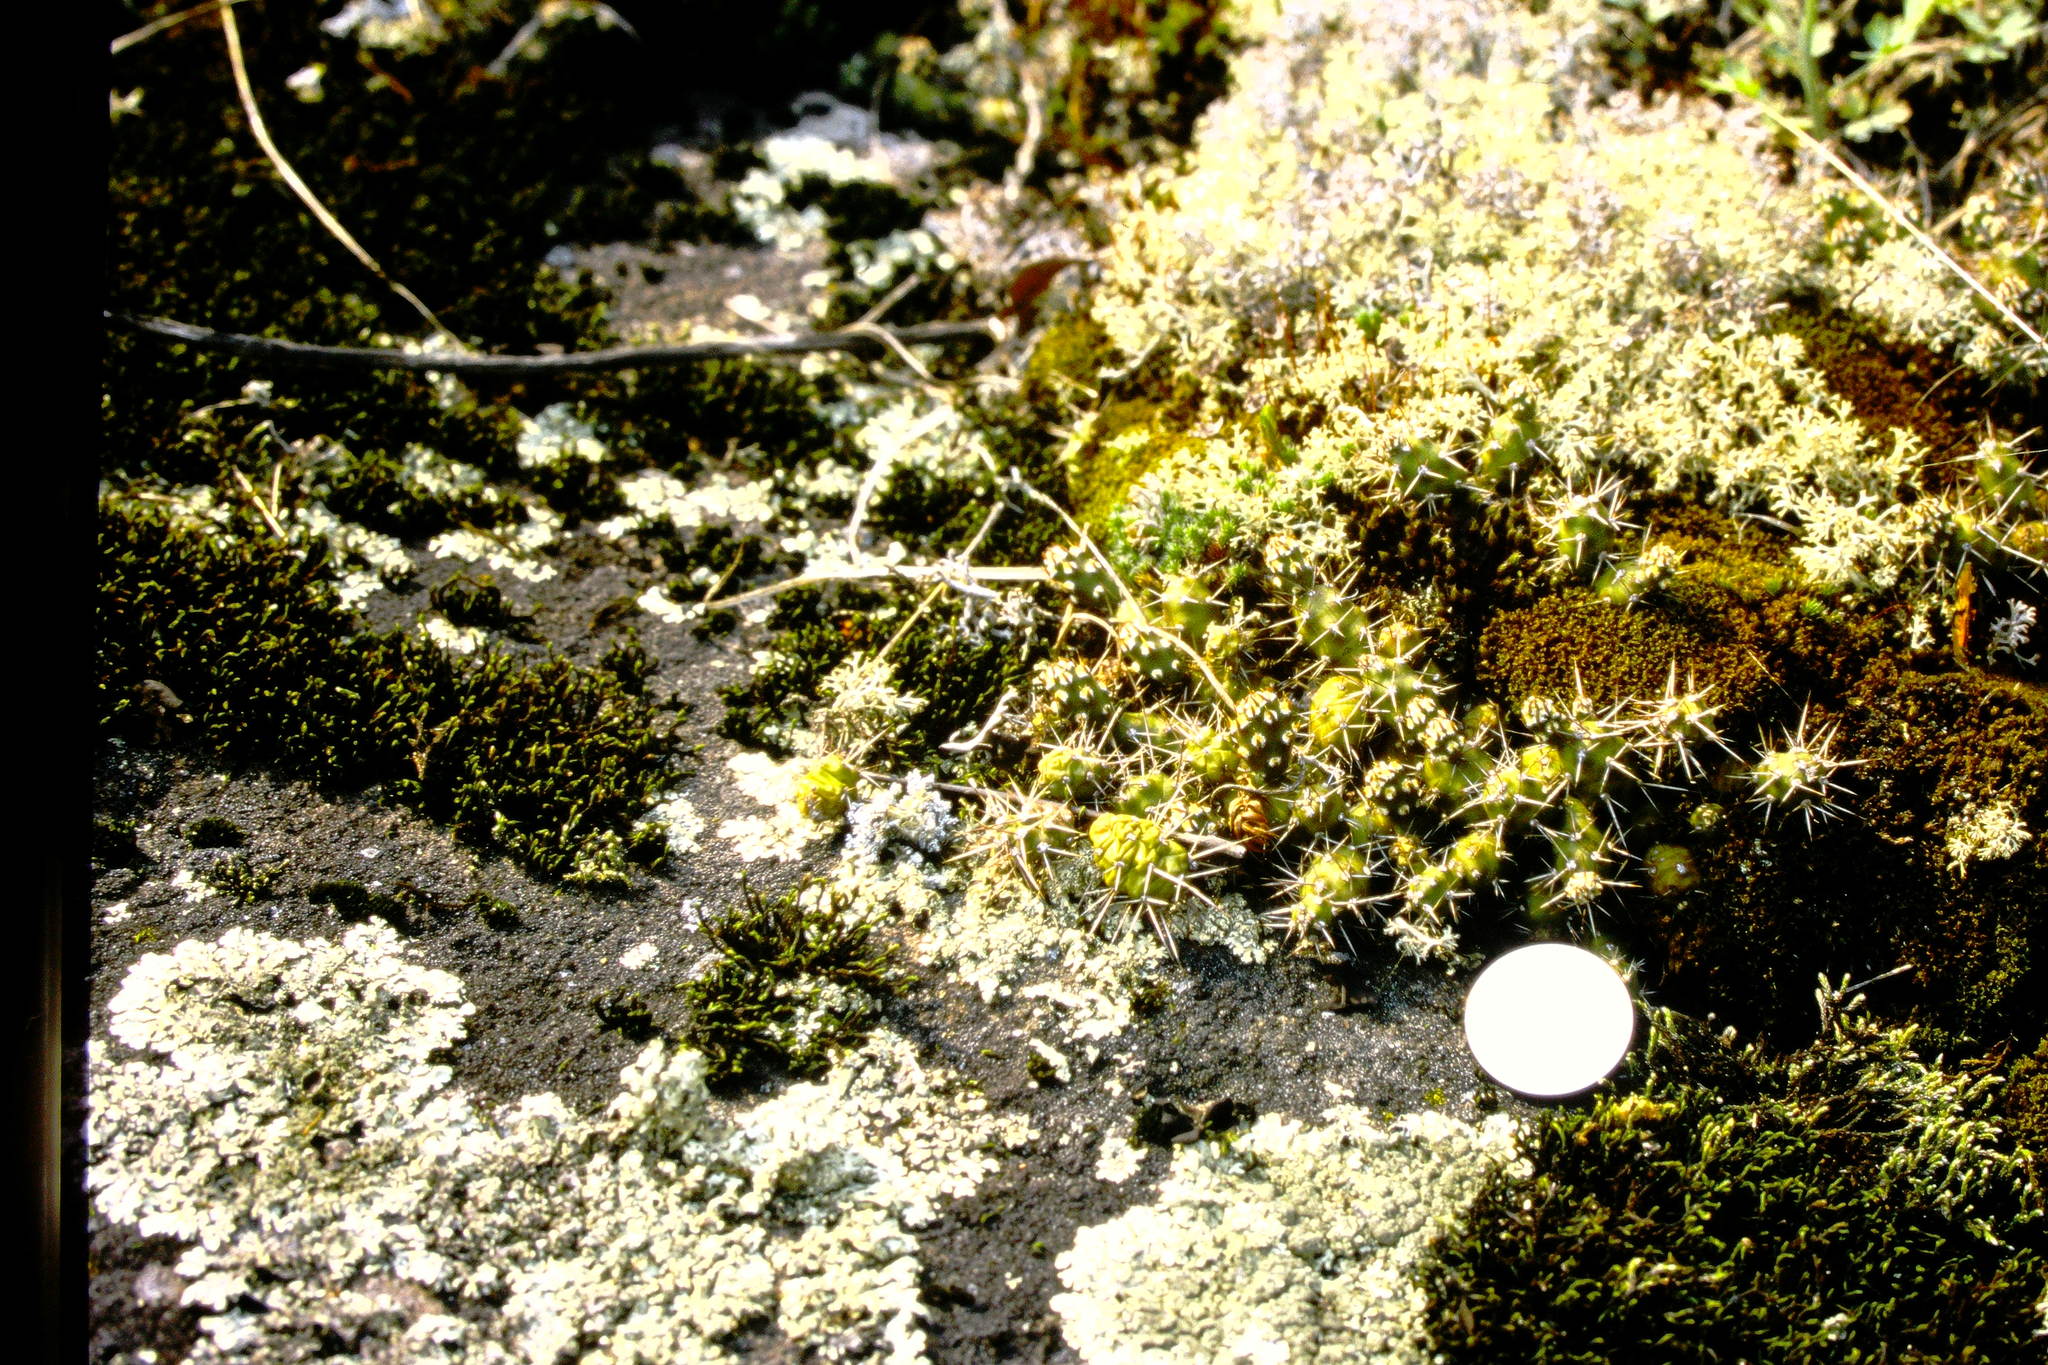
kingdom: Plantae
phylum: Tracheophyta
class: Magnoliopsida
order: Caryophyllales
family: Cactaceae
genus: Opuntia
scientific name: Opuntia fragilis
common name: Brittle cactus
